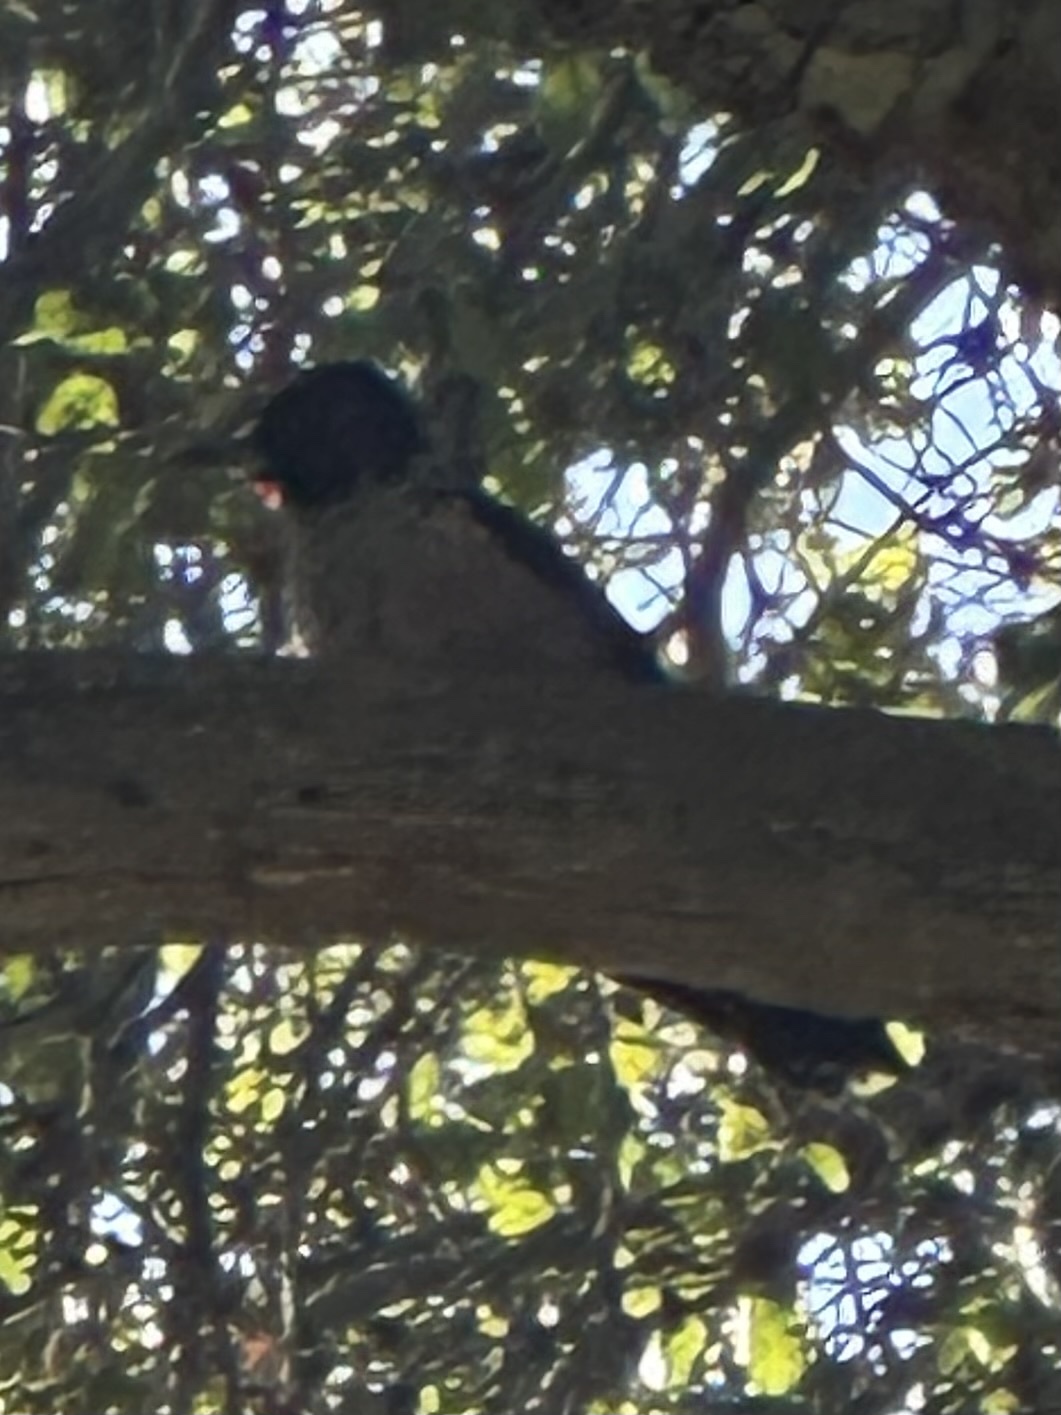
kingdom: Animalia
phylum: Chordata
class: Aves
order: Piciformes
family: Picidae
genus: Melanerpes
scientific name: Melanerpes lewis
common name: Lewis's woodpecker
